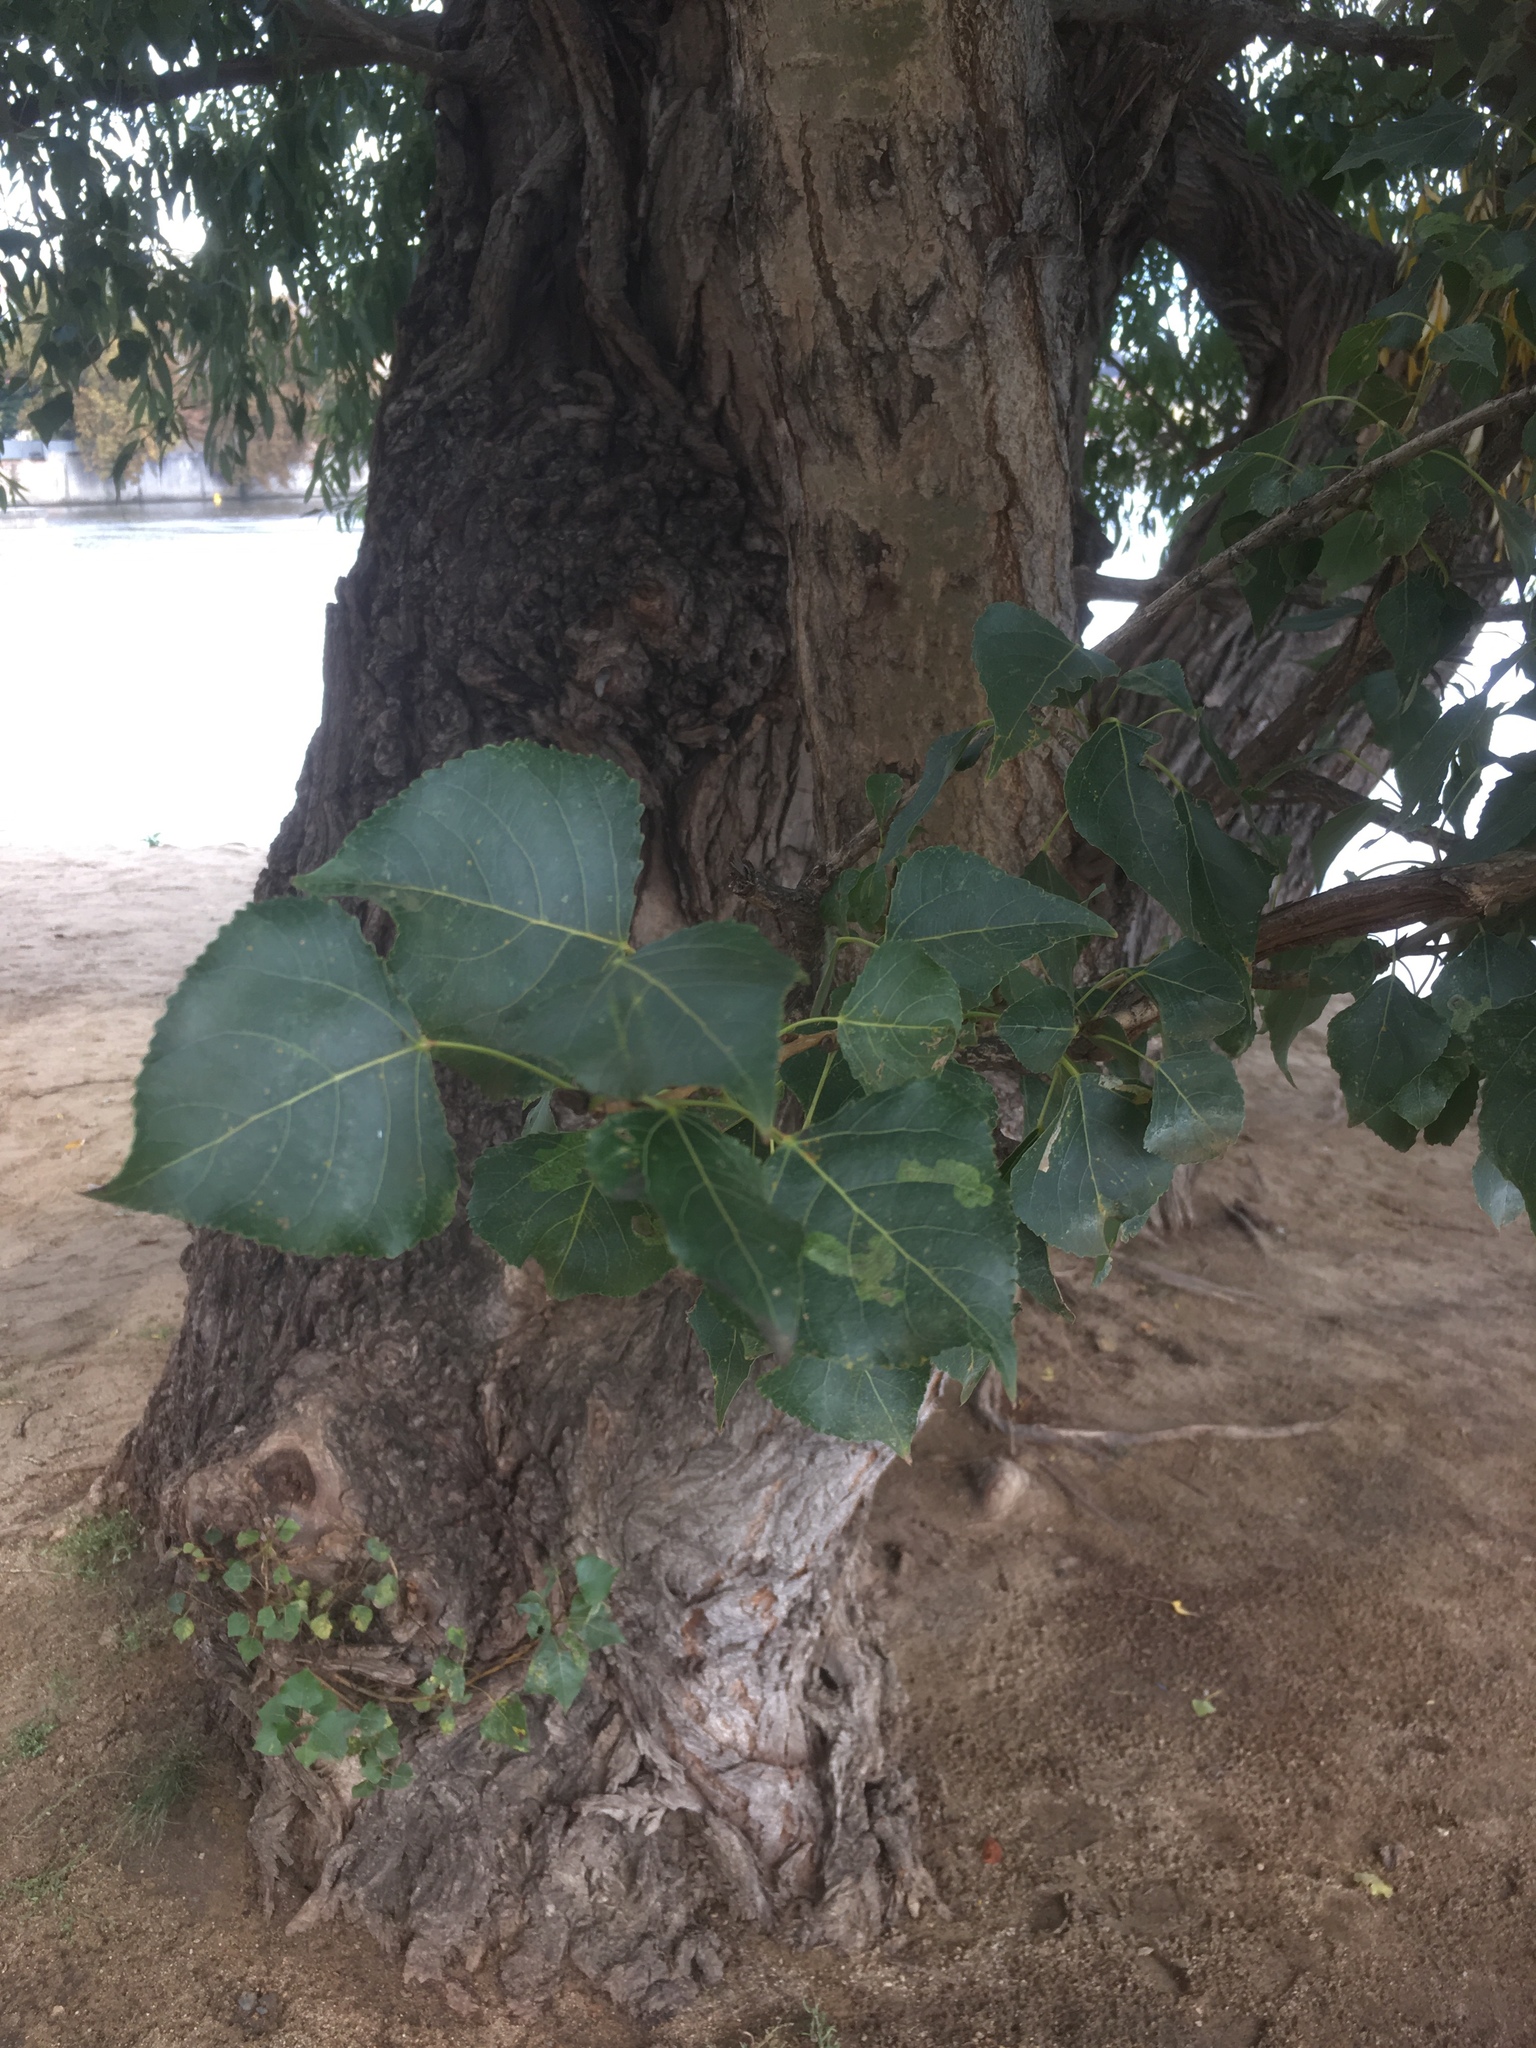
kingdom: Plantae
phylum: Tracheophyta
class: Magnoliopsida
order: Malpighiales
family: Salicaceae
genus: Populus
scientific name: Populus nigra
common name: Black poplar
